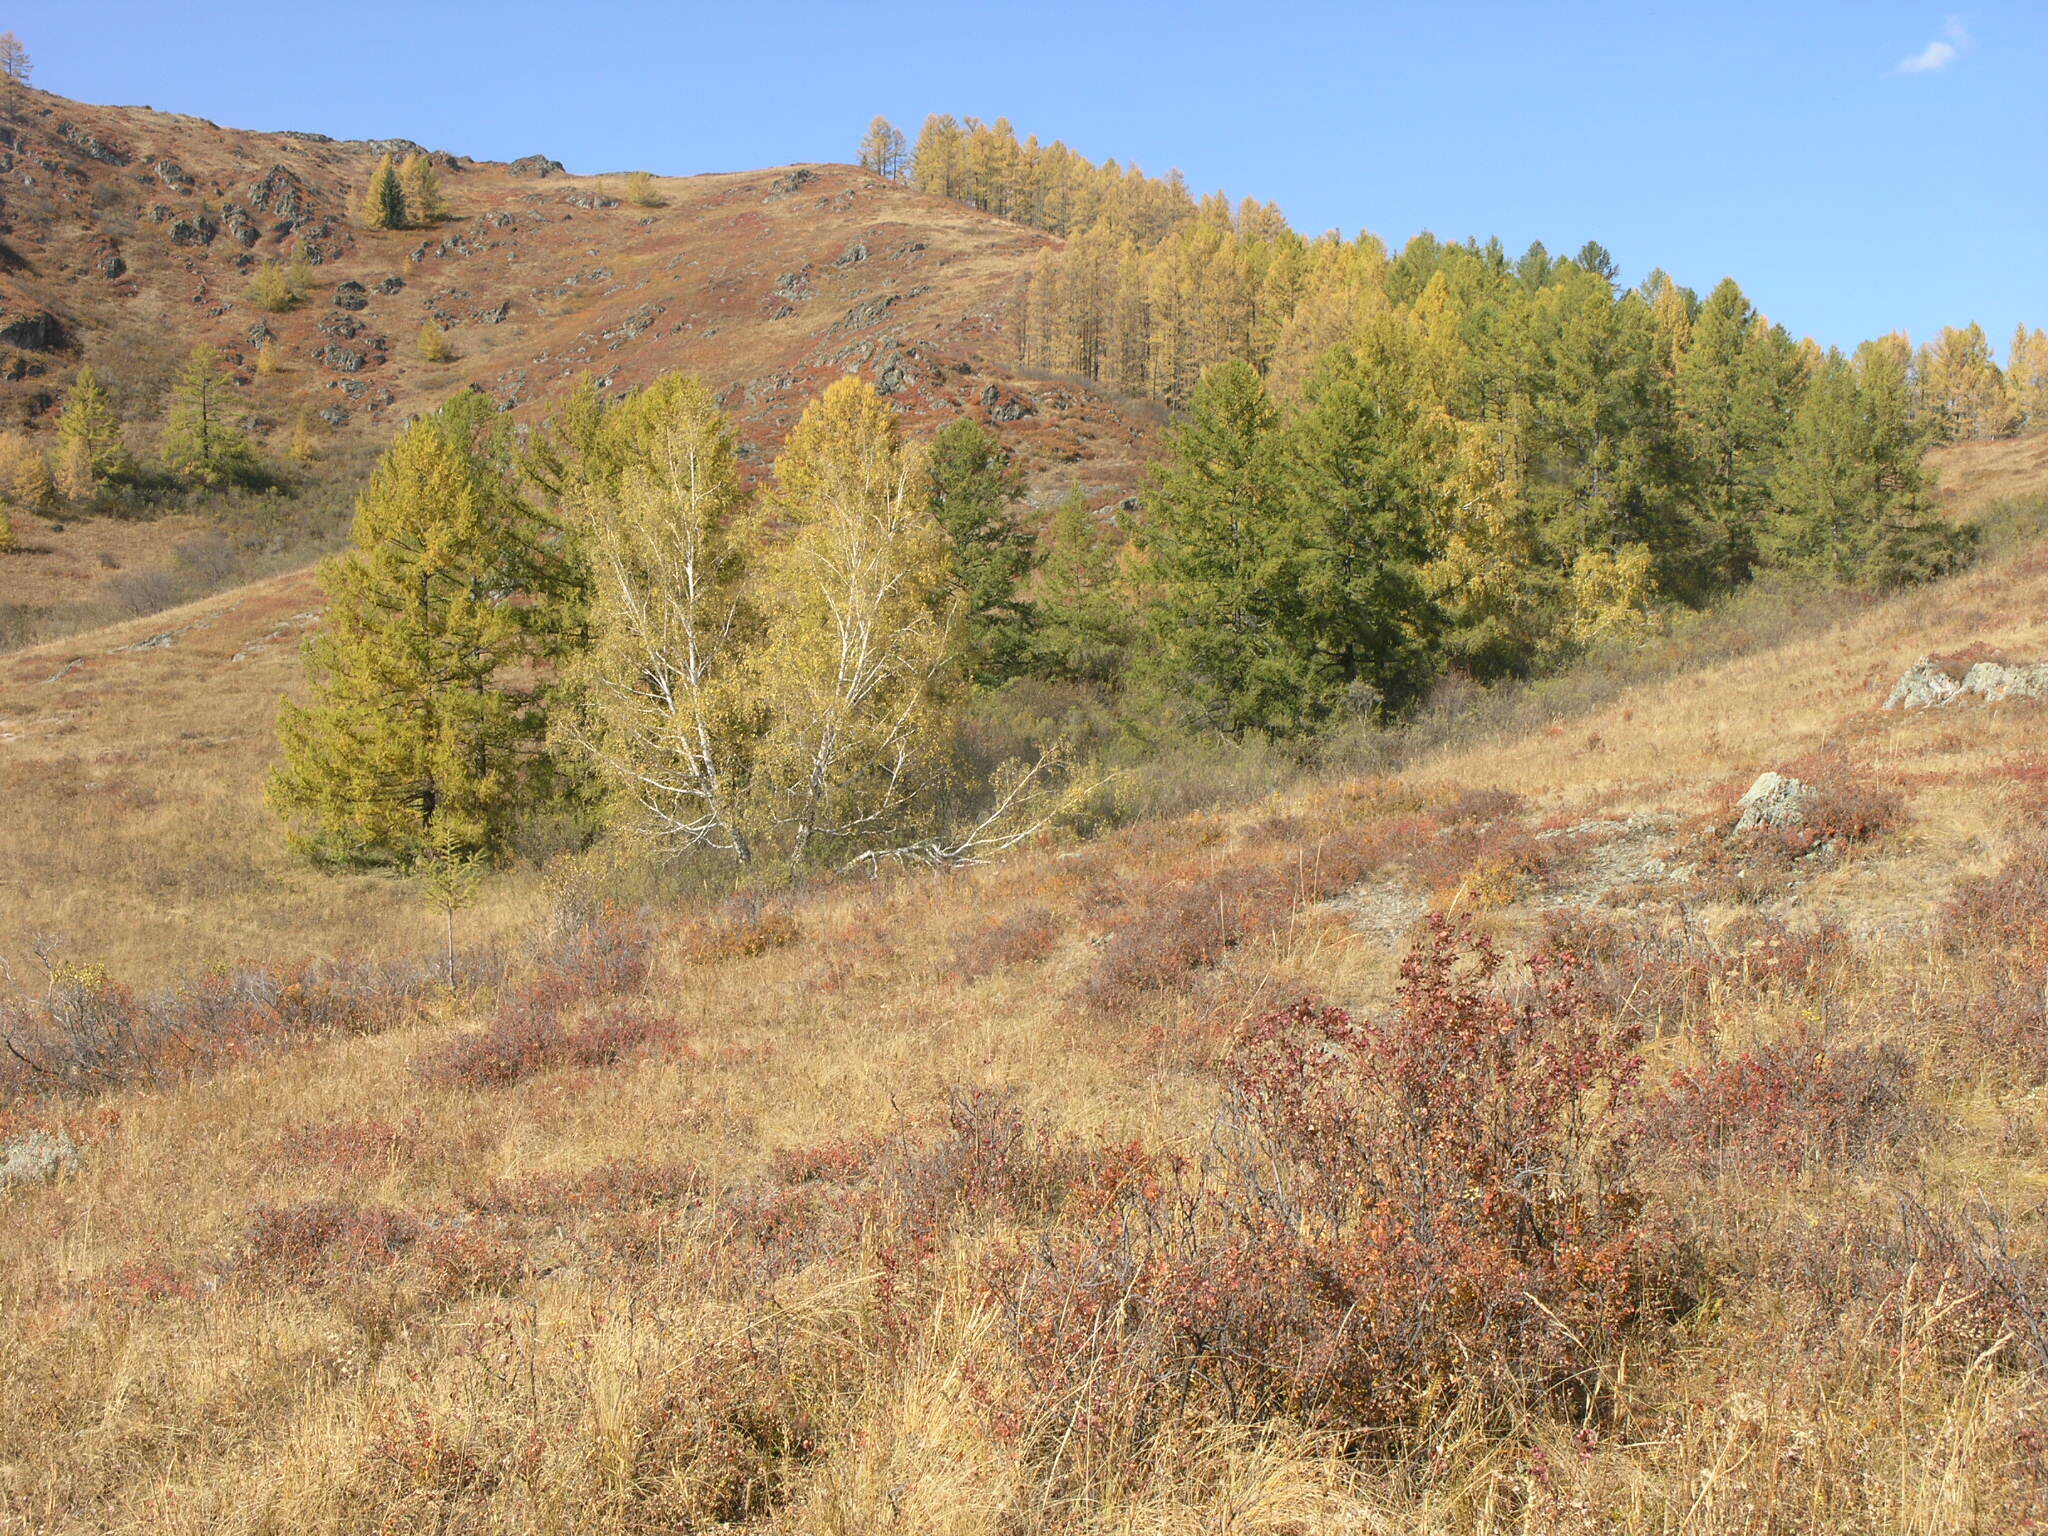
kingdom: Plantae
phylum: Tracheophyta
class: Pinopsida
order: Pinales
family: Pinaceae
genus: Larix
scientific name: Larix sibirica
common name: Siberian larch
